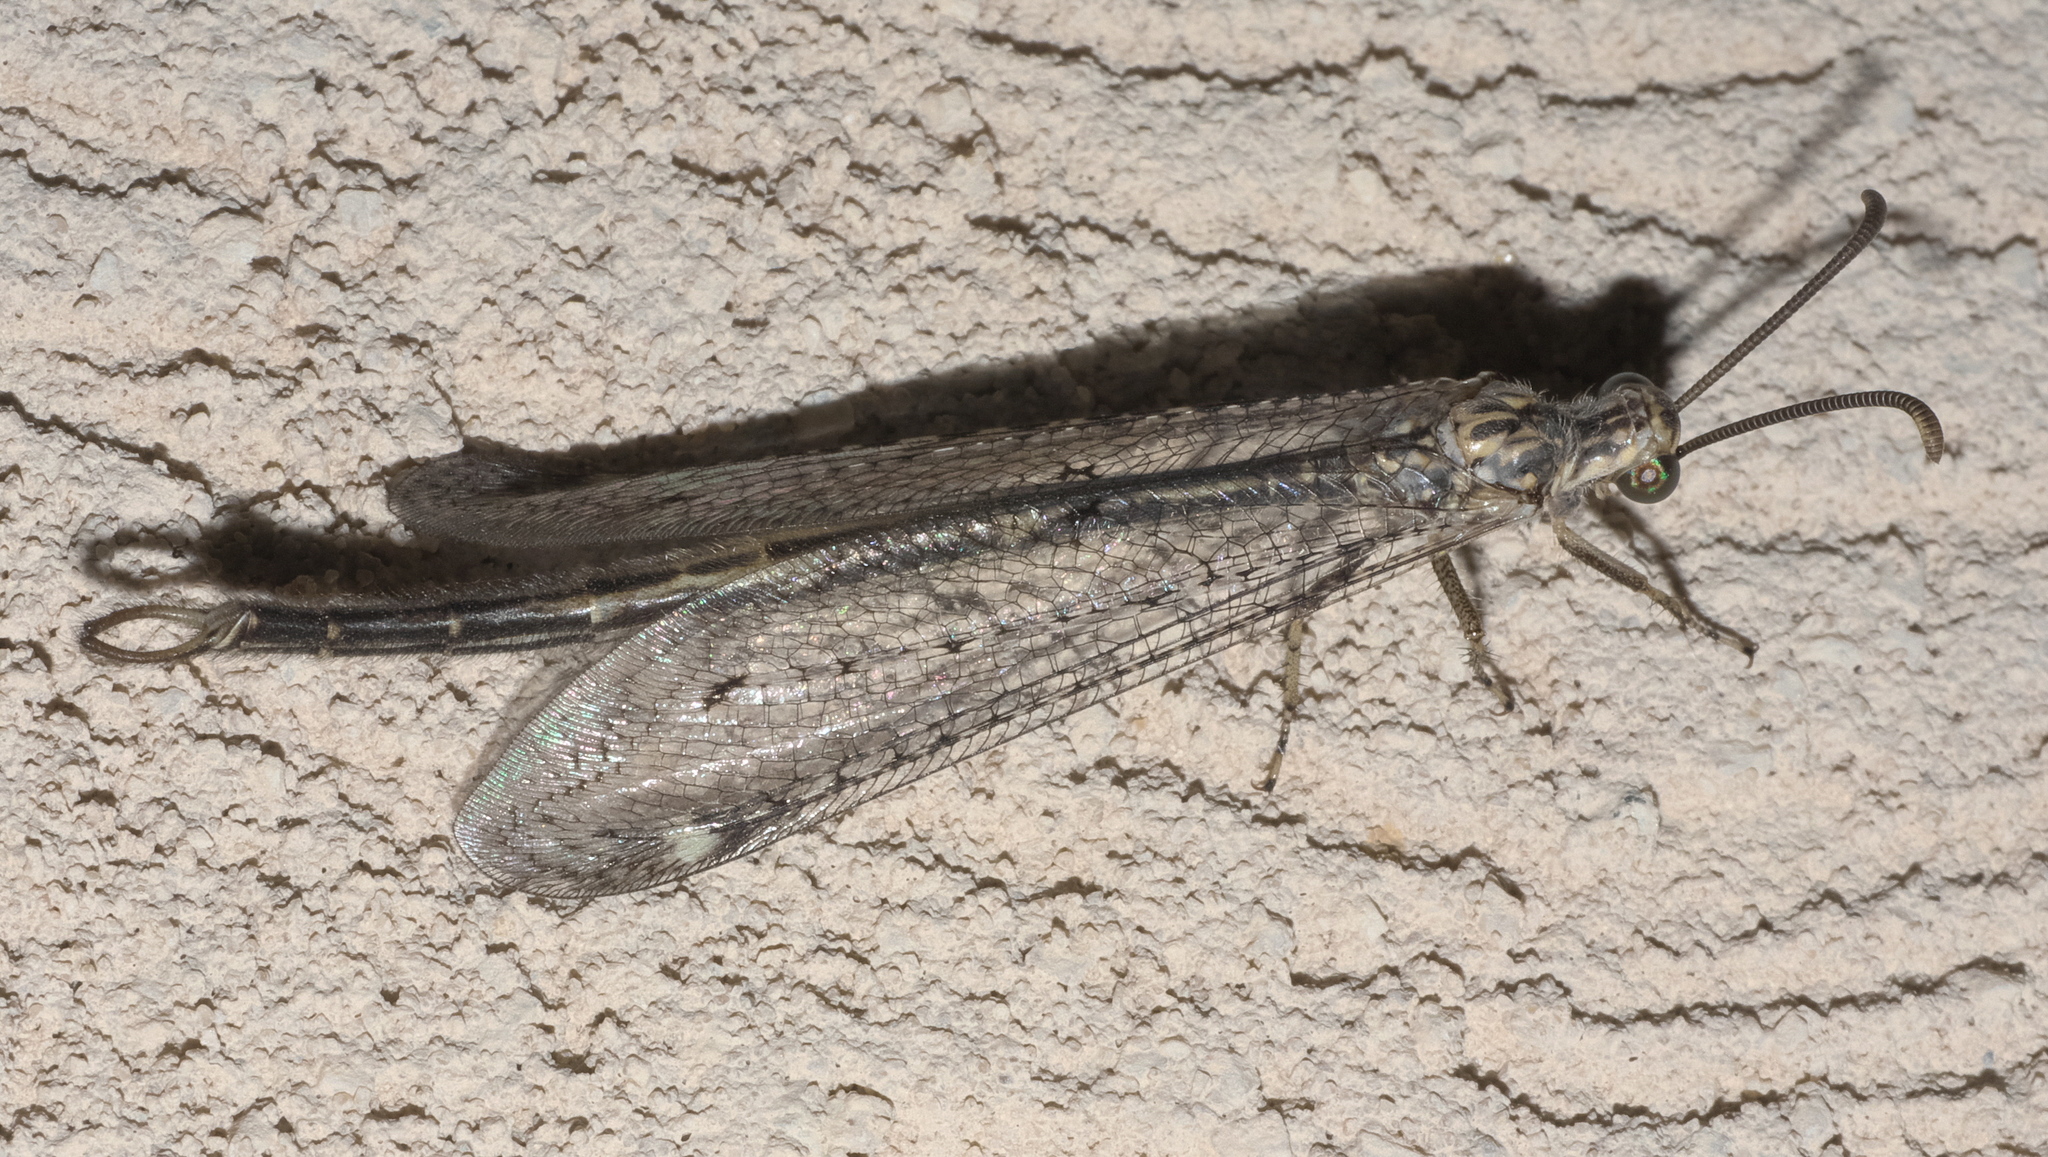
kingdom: Animalia
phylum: Arthropoda
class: Insecta
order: Neuroptera
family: Myrmeleontidae
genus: Scotoleon
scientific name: Scotoleon carrizonus
